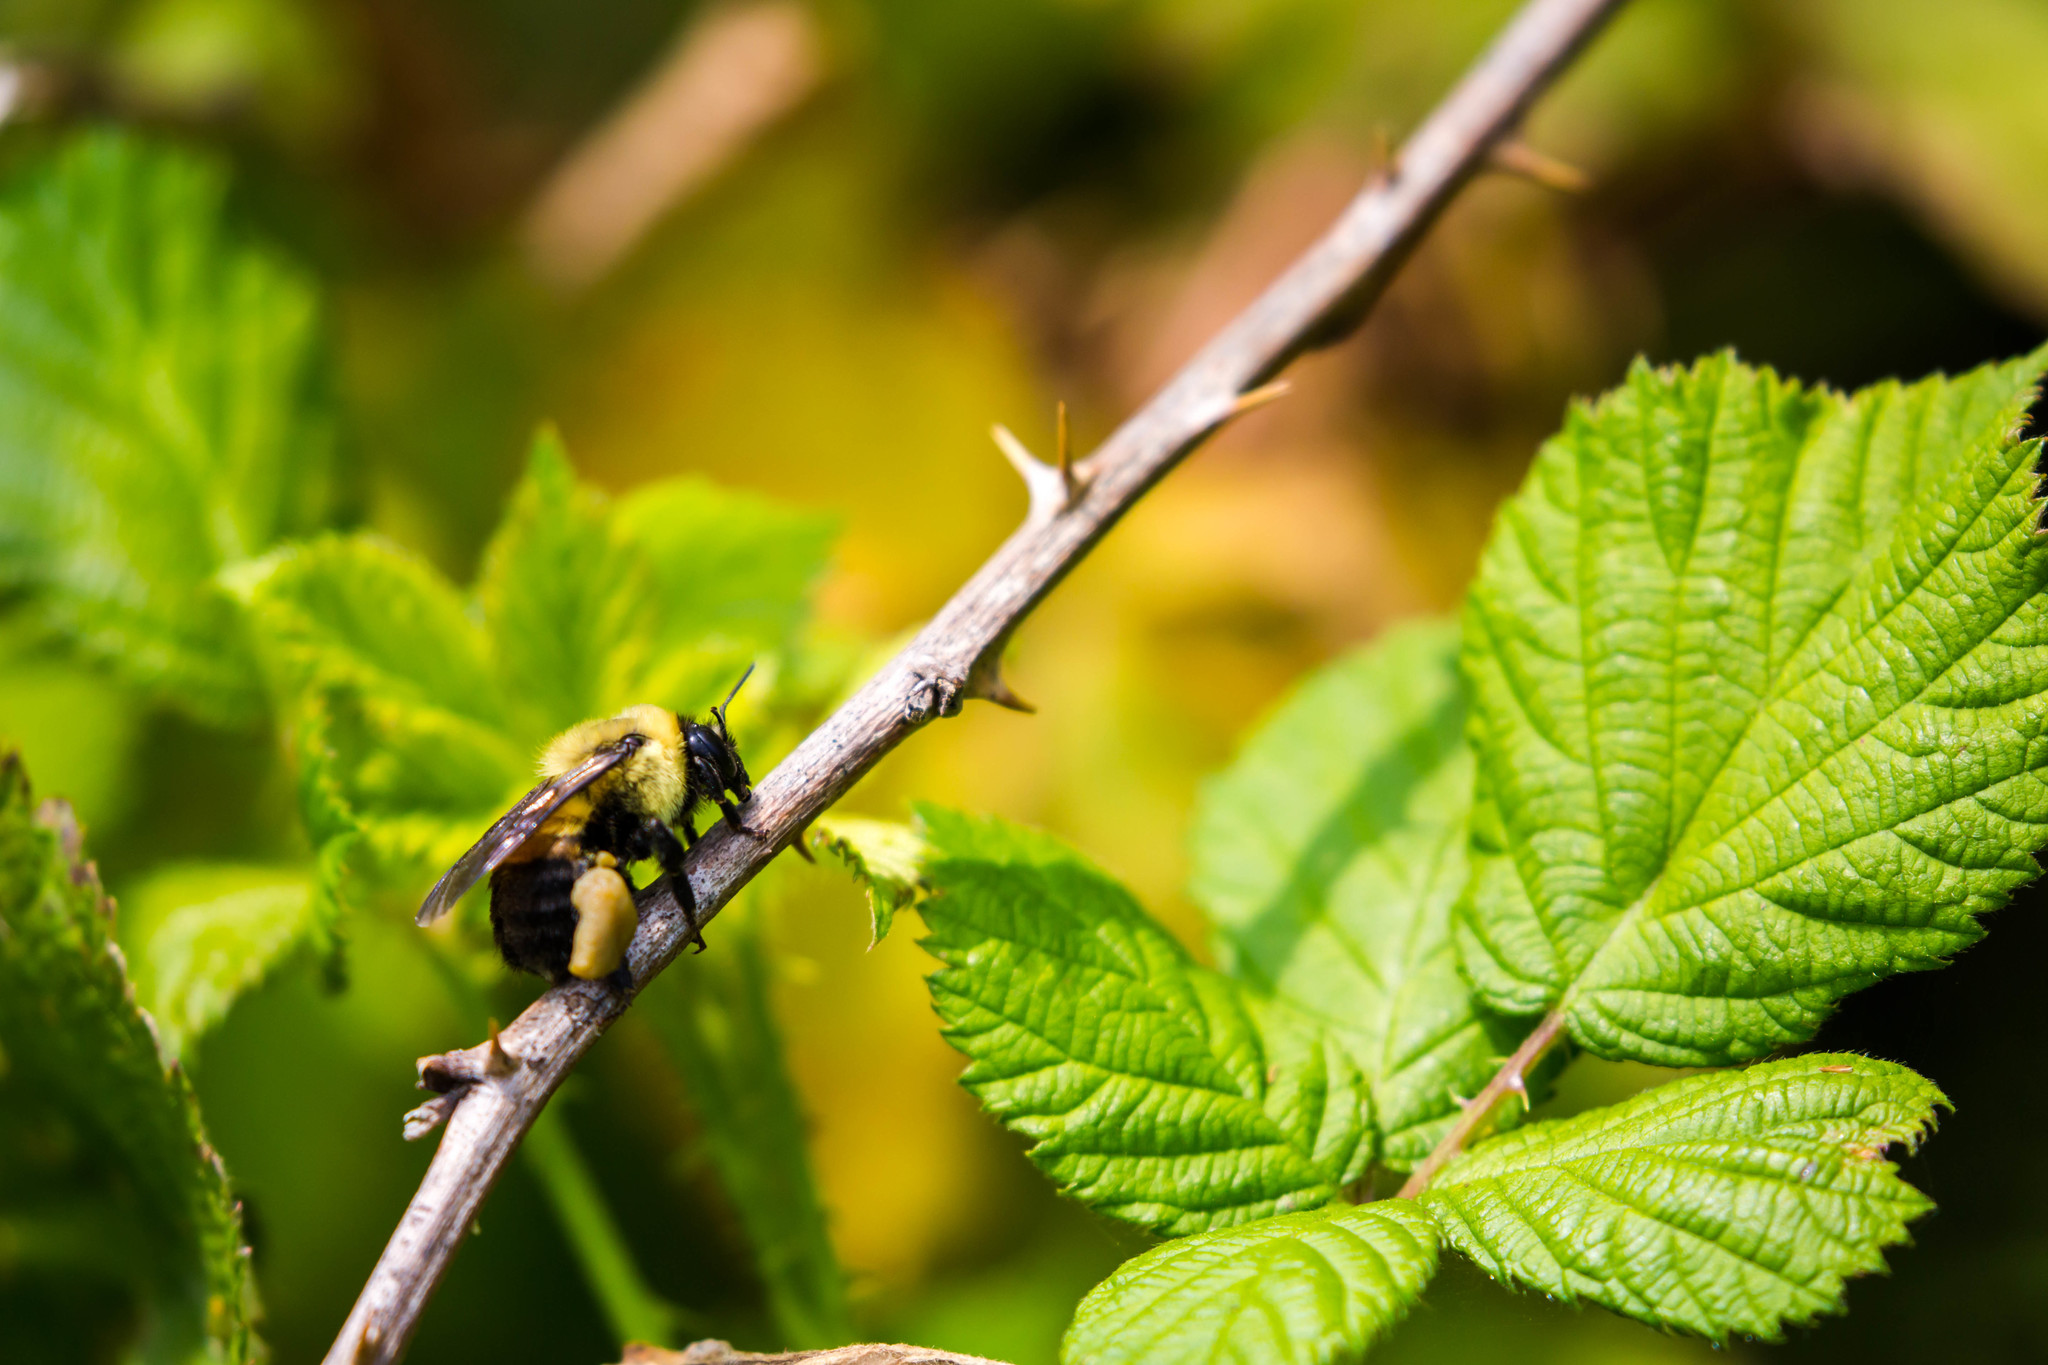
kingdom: Animalia
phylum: Arthropoda
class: Insecta
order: Hymenoptera
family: Apidae
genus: Bombus
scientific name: Bombus griseocollis
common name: Brown-belted bumble bee
